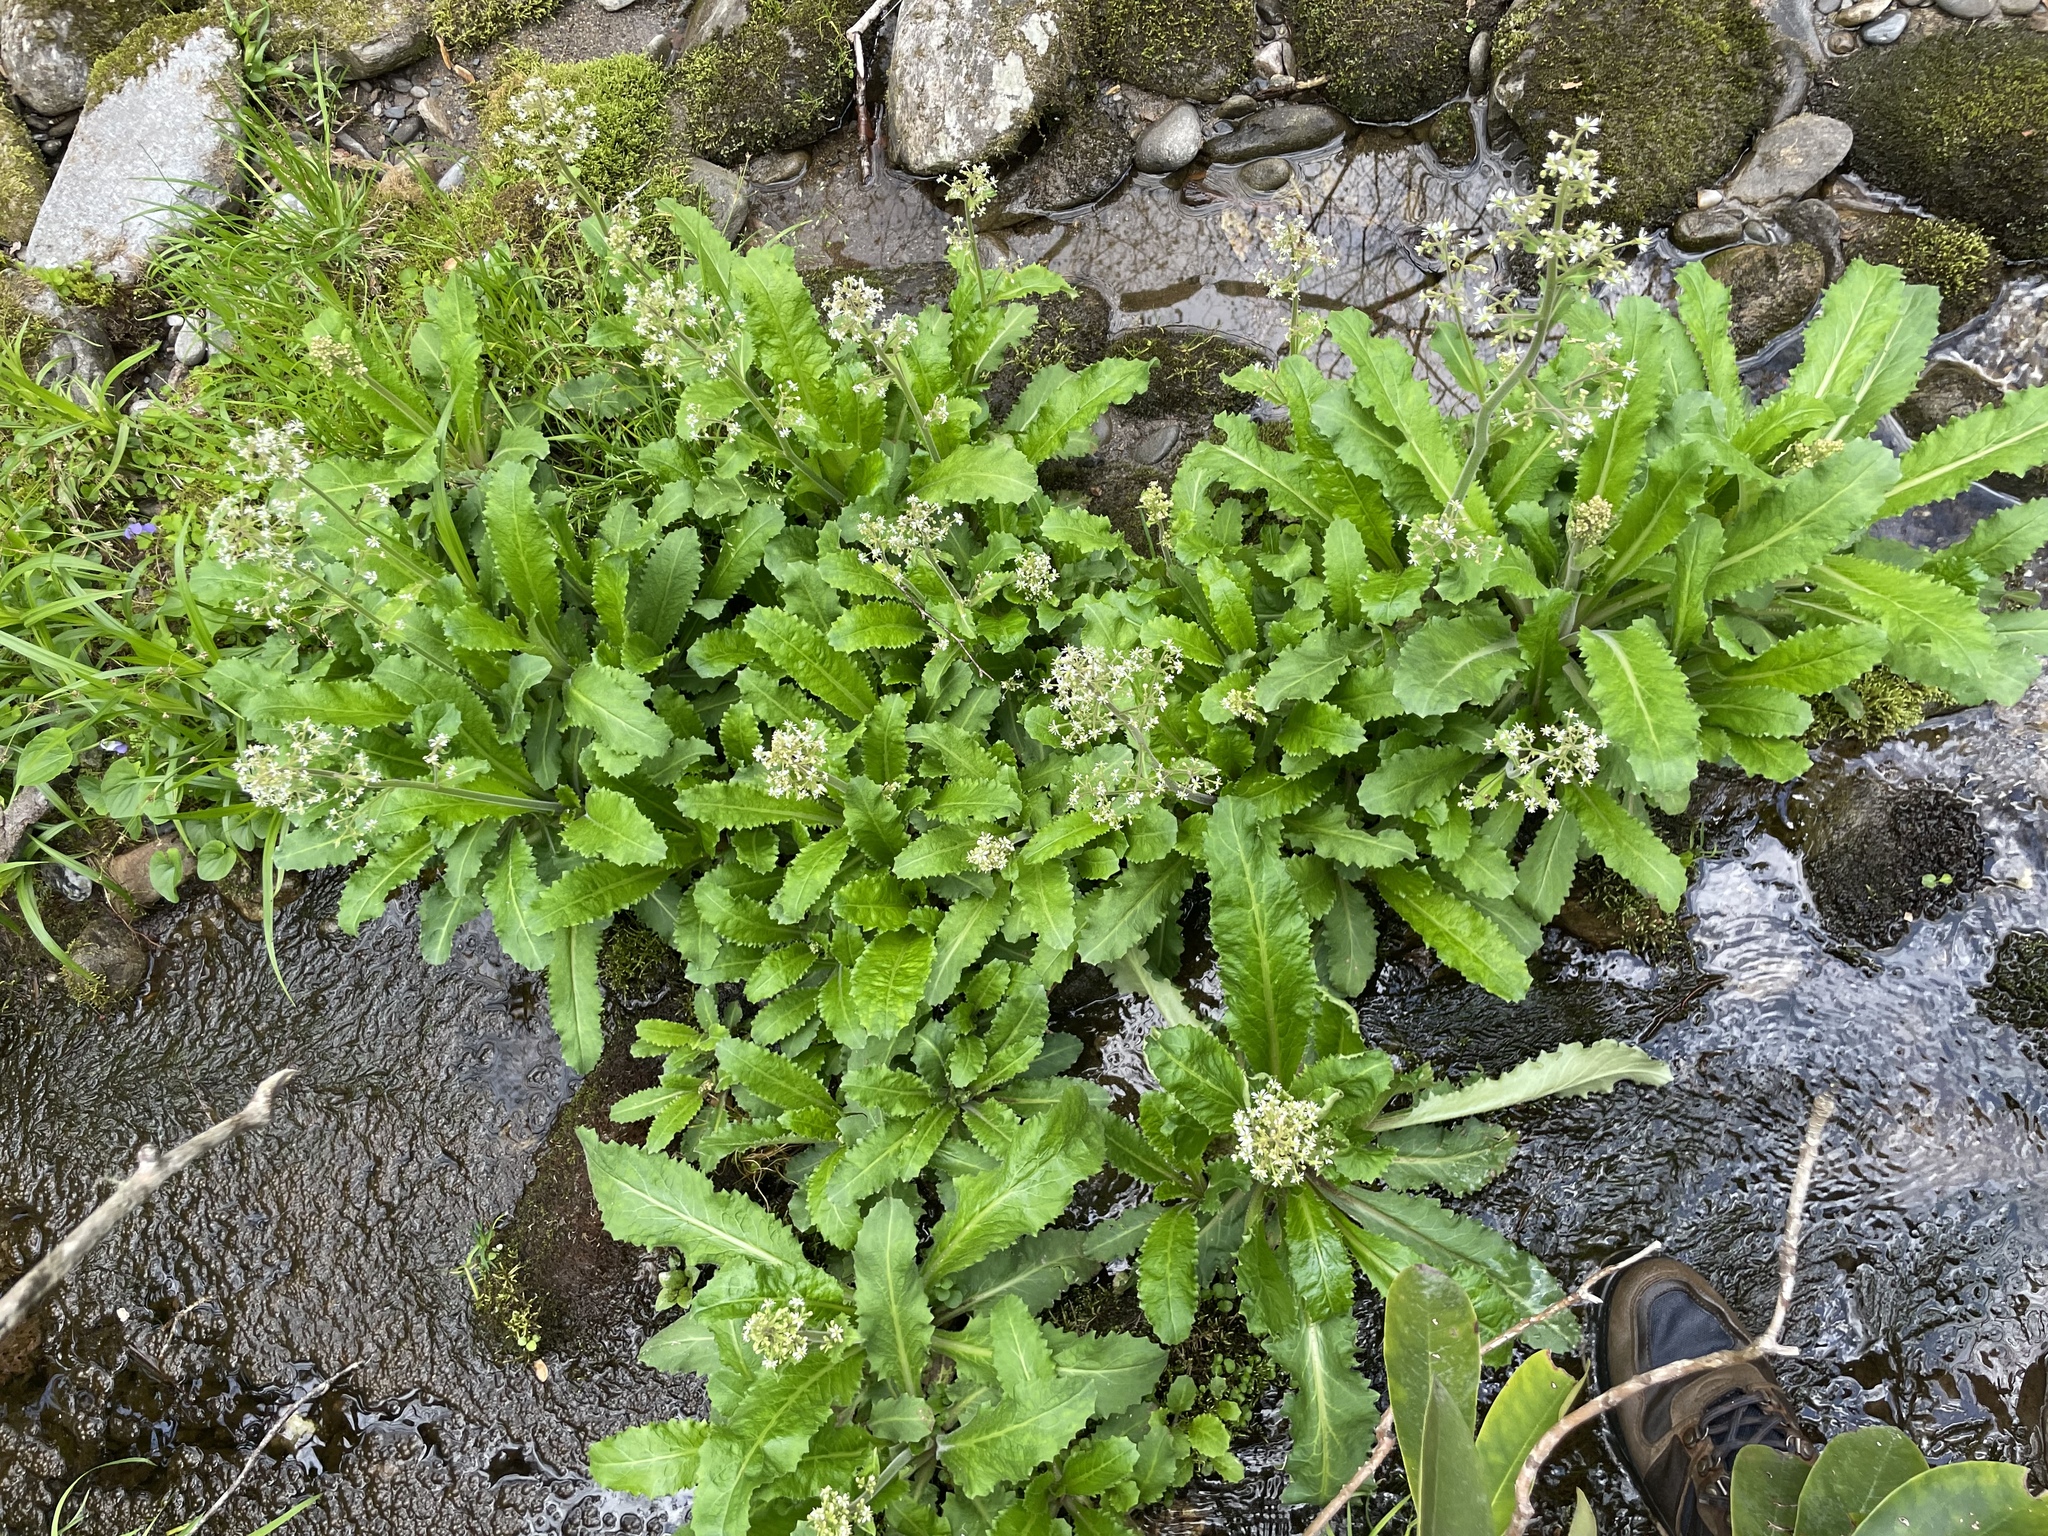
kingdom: Plantae
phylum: Tracheophyta
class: Magnoliopsida
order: Saxifragales
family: Saxifragaceae
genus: Micranthes
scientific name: Micranthes micranthidifolia
